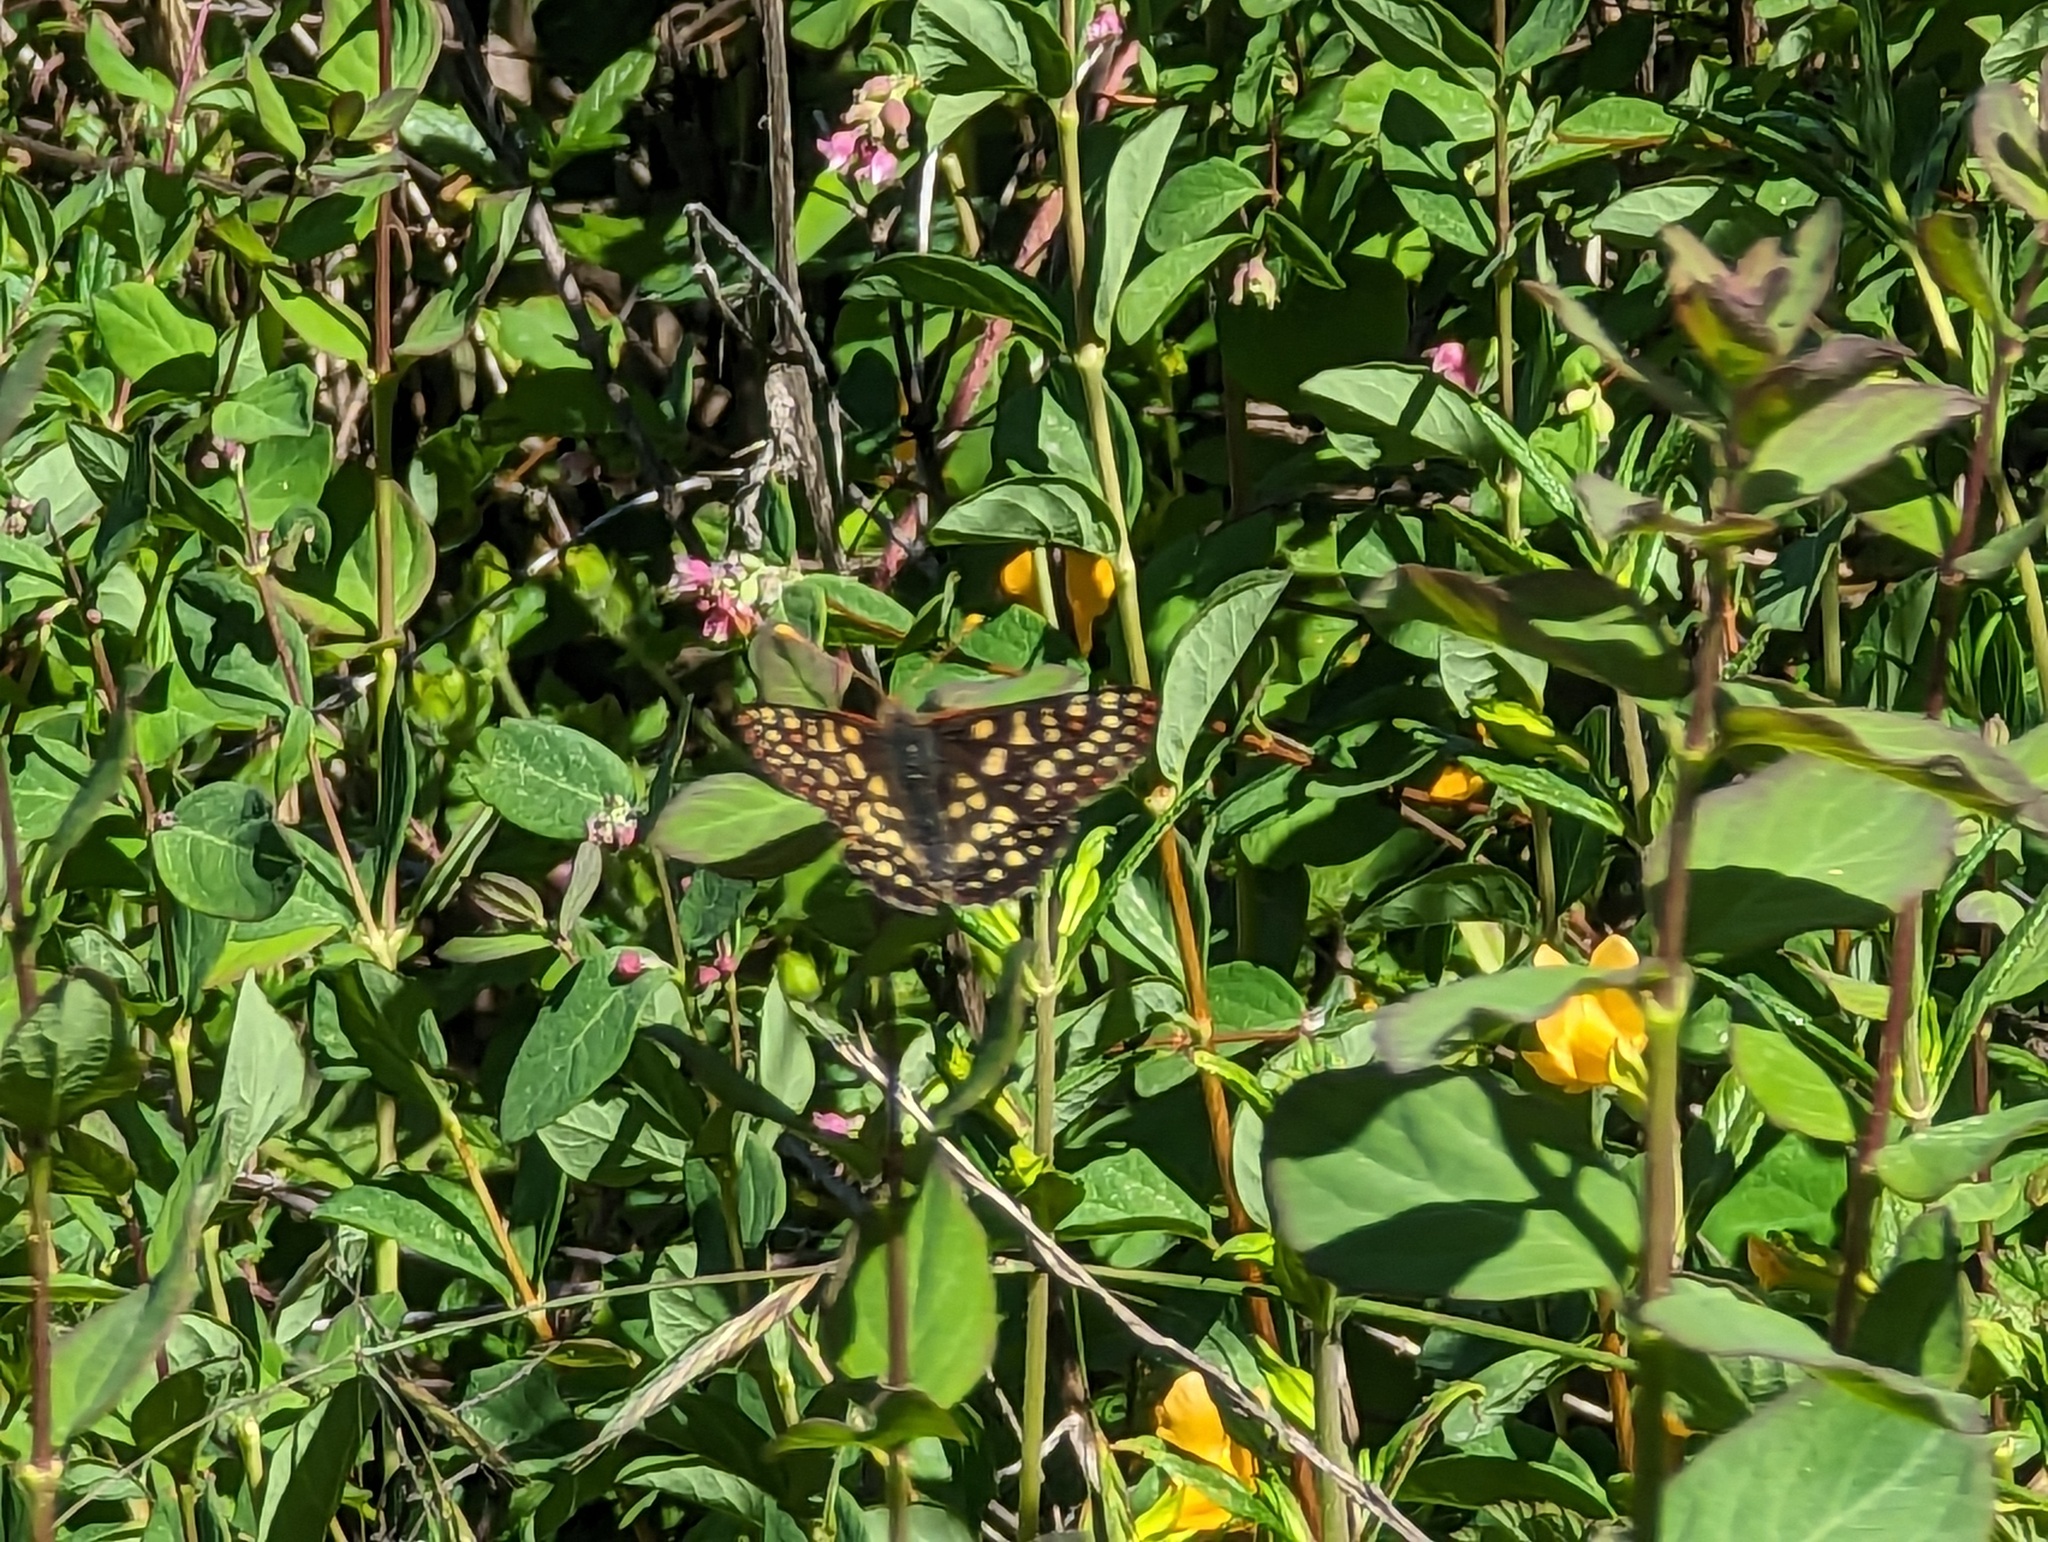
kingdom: Animalia
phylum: Arthropoda
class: Insecta
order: Lepidoptera
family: Nymphalidae
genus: Occidryas
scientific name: Occidryas chalcedona
